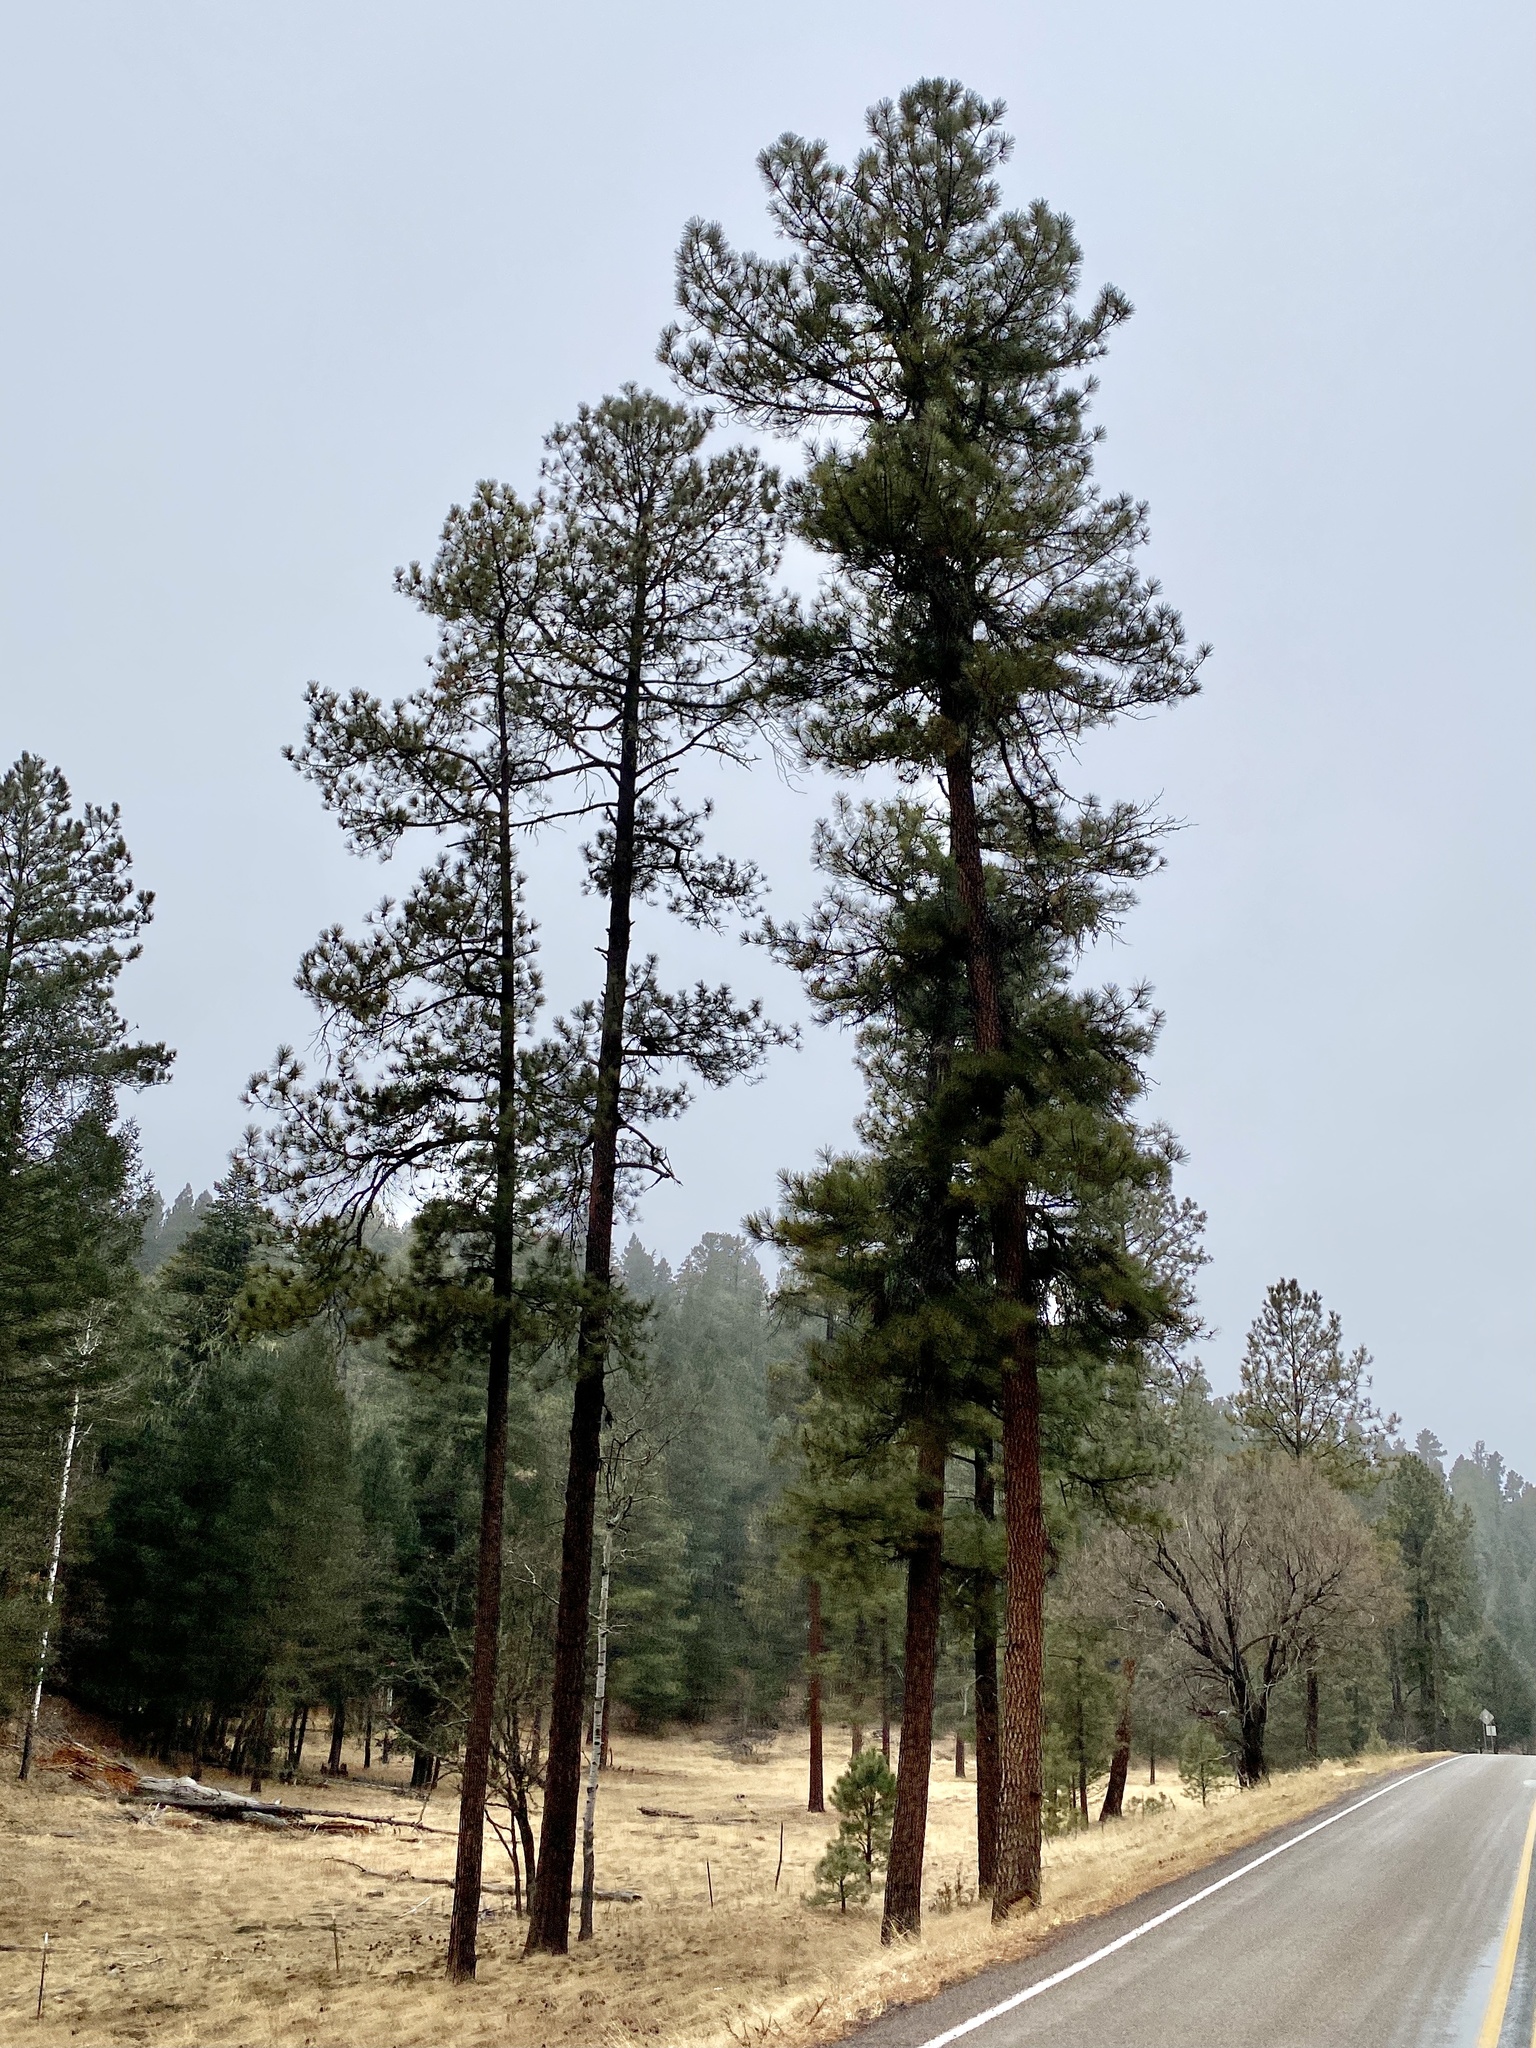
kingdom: Plantae
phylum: Tracheophyta
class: Pinopsida
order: Pinales
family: Pinaceae
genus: Pinus
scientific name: Pinus ponderosa
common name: Western yellow-pine
